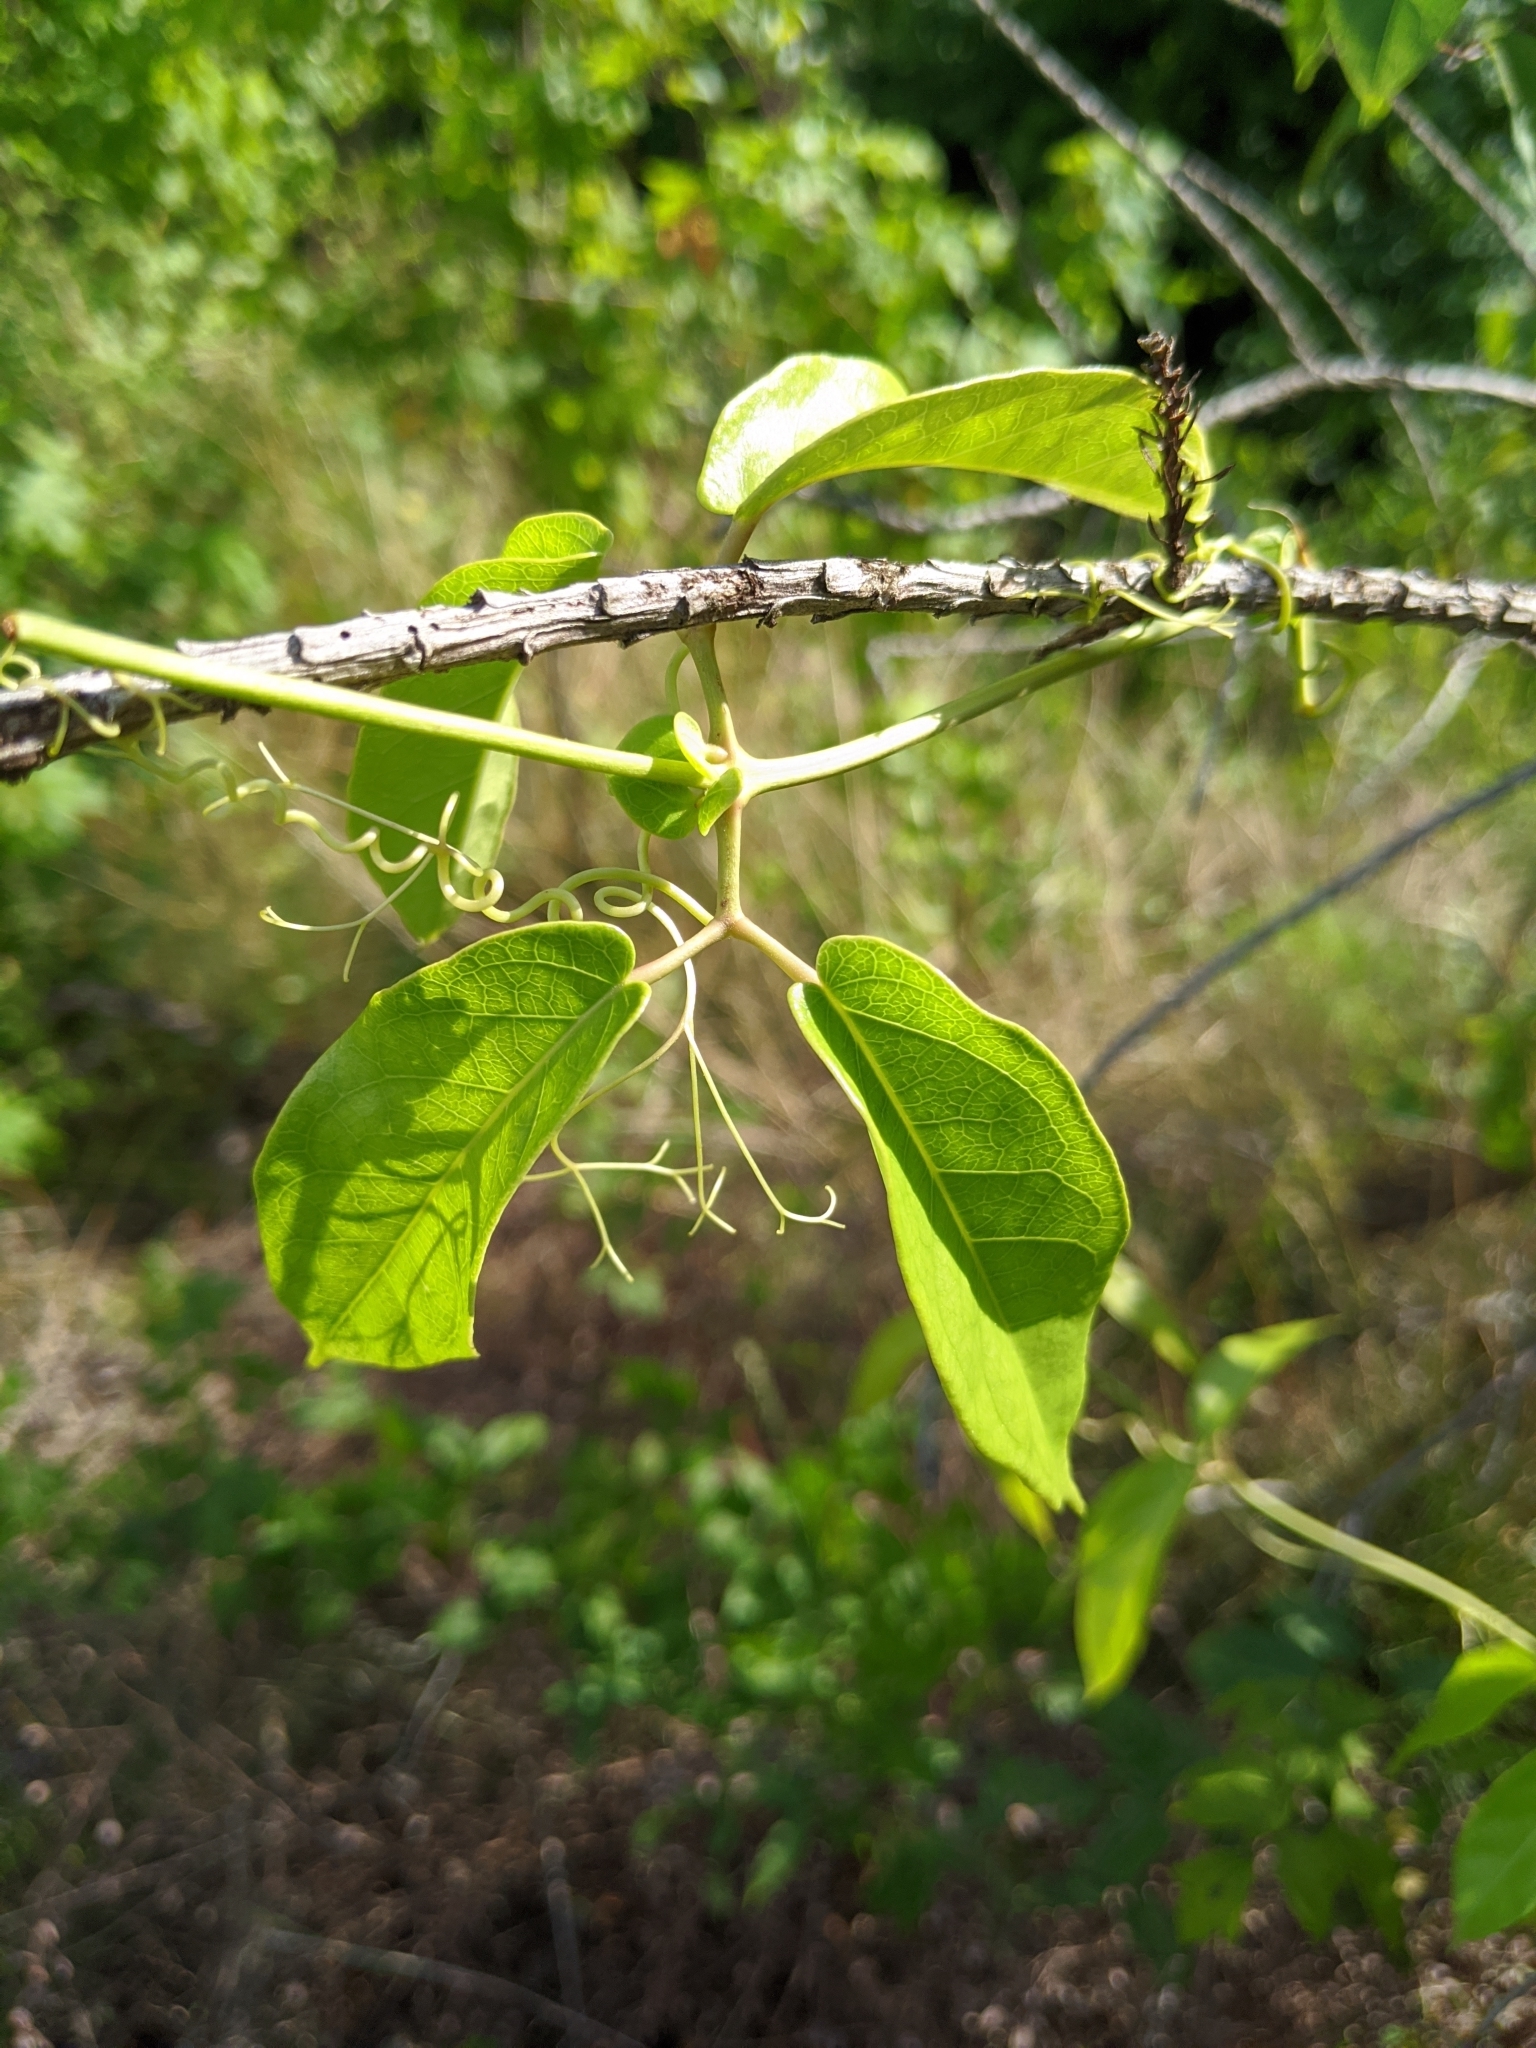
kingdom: Plantae
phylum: Tracheophyta
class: Magnoliopsida
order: Lamiales
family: Bignoniaceae
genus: Bignonia
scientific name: Bignonia capreolata
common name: Crossvine
